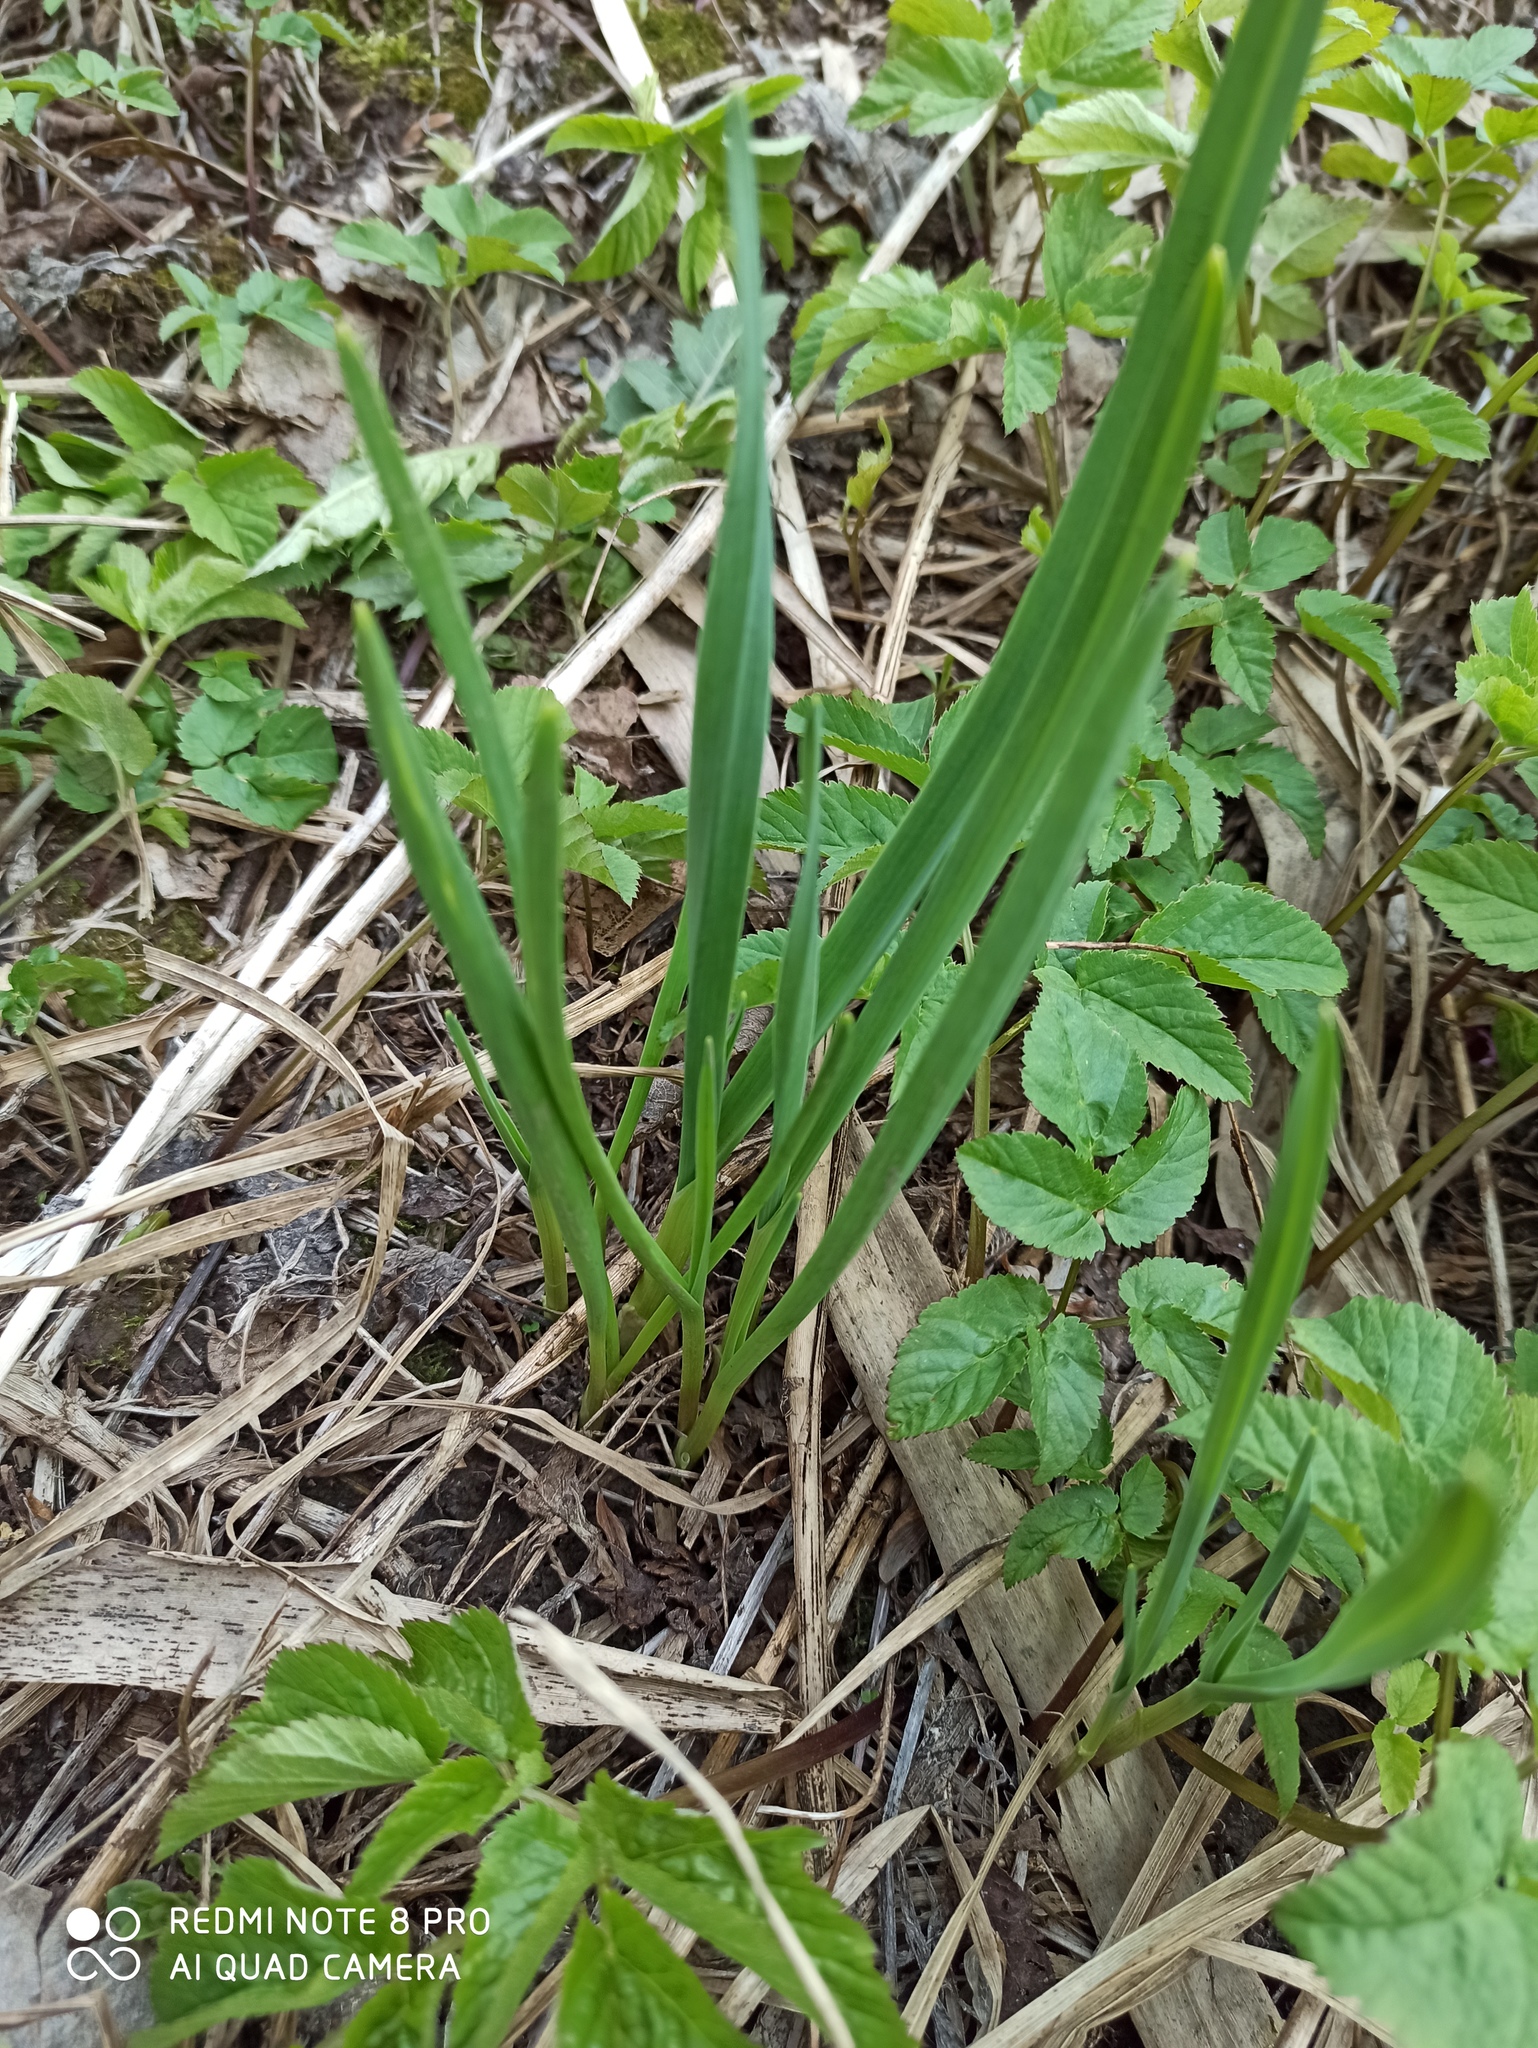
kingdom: Plantae
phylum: Tracheophyta
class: Liliopsida
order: Asparagales
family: Amaryllidaceae
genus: Allium
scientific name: Allium sativum
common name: Garlic
